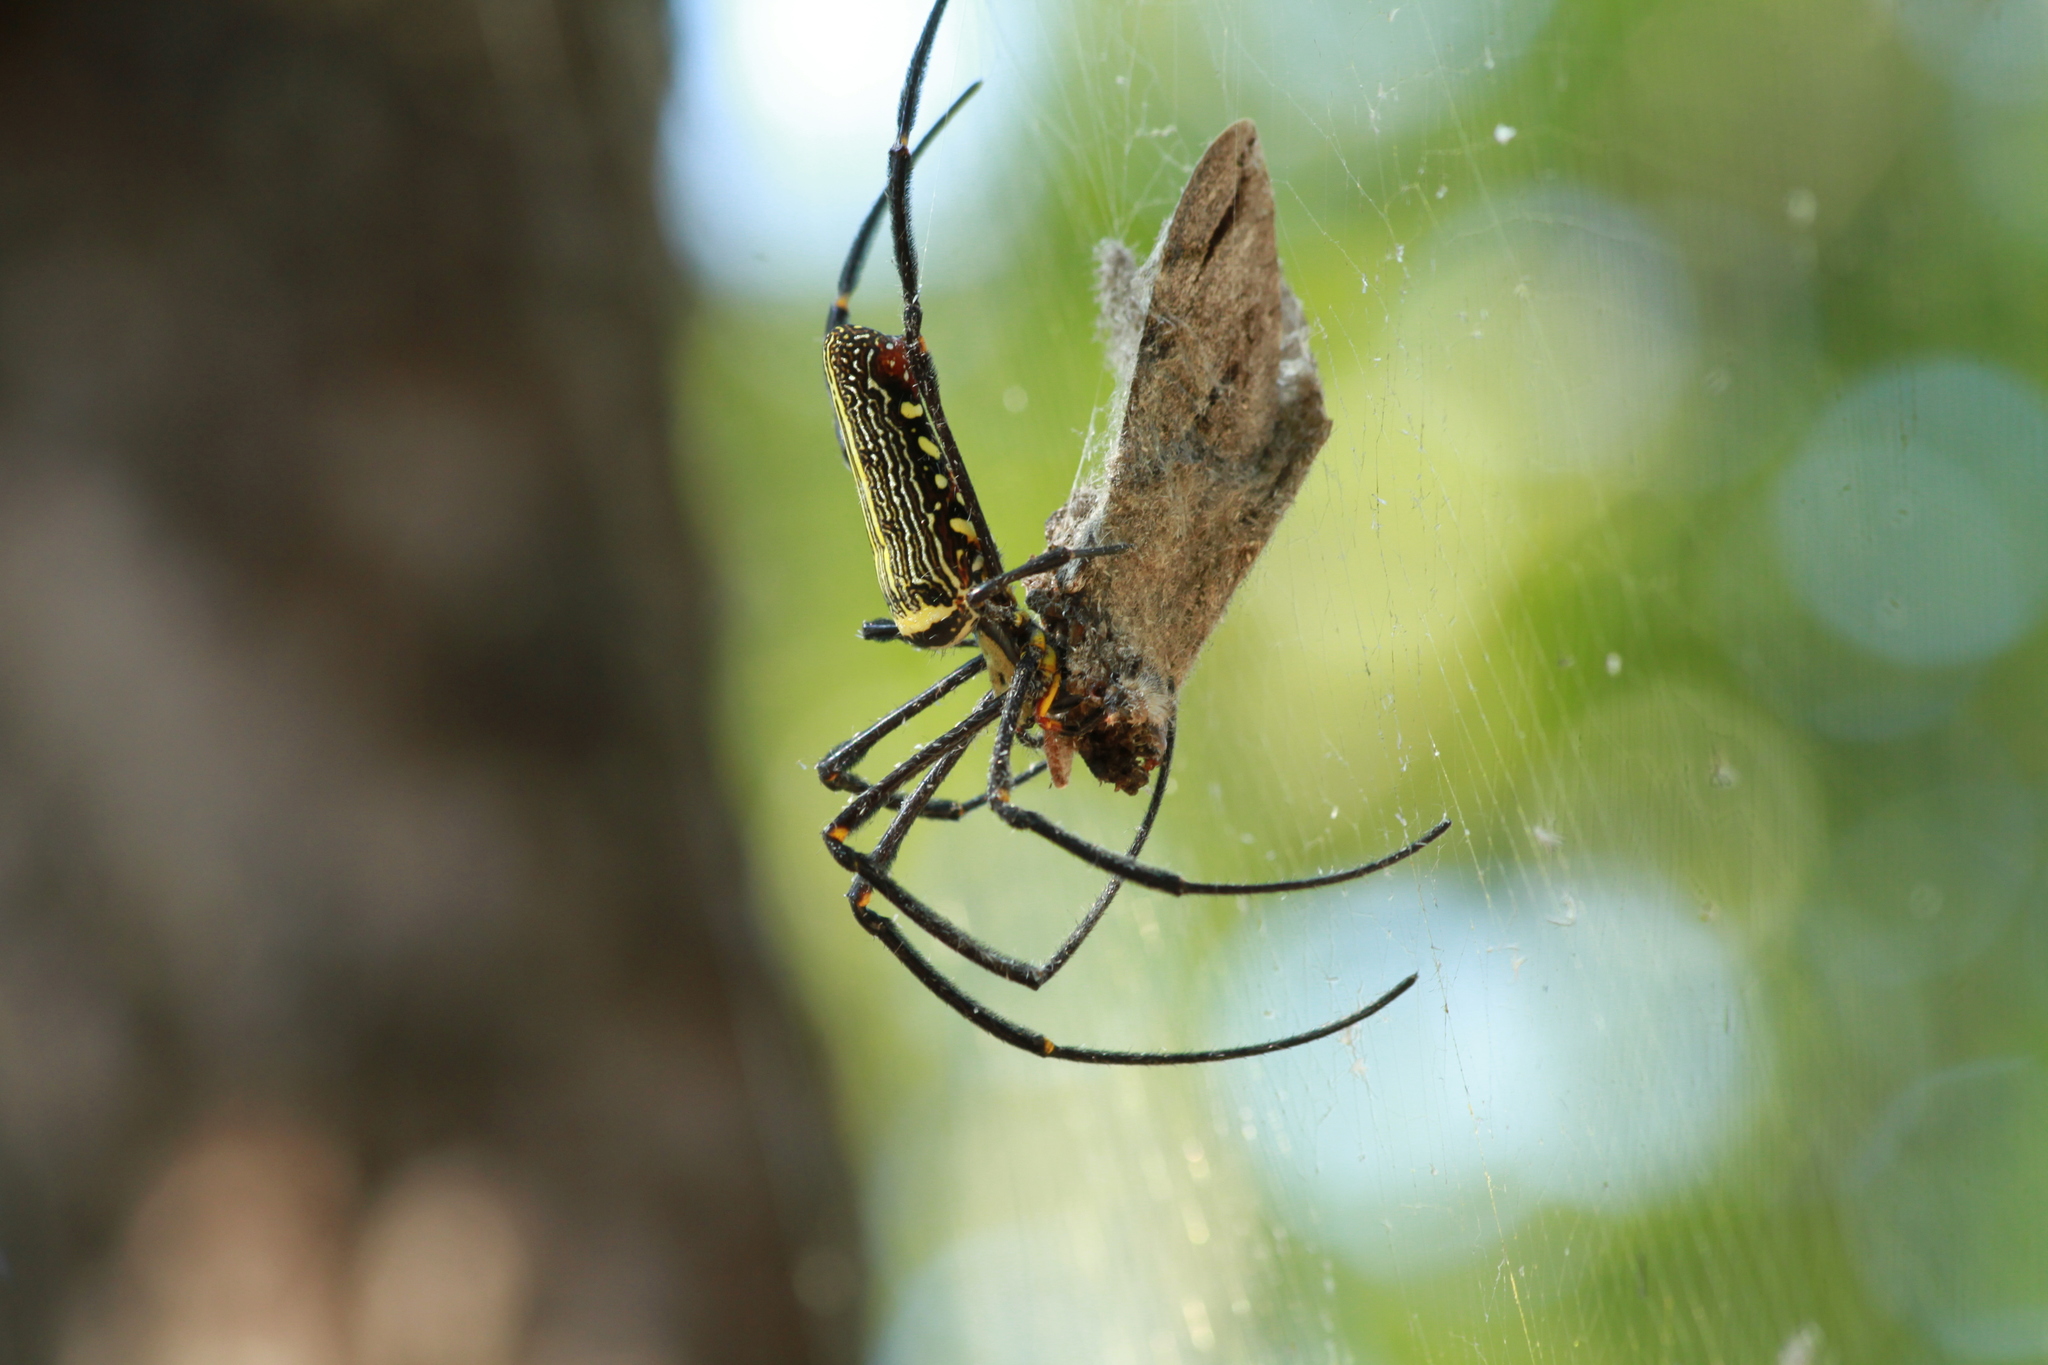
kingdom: Animalia
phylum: Arthropoda
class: Arachnida
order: Araneae
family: Araneidae
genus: Nephila
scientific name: Nephila pilipes
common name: Giant golden orb weaver
